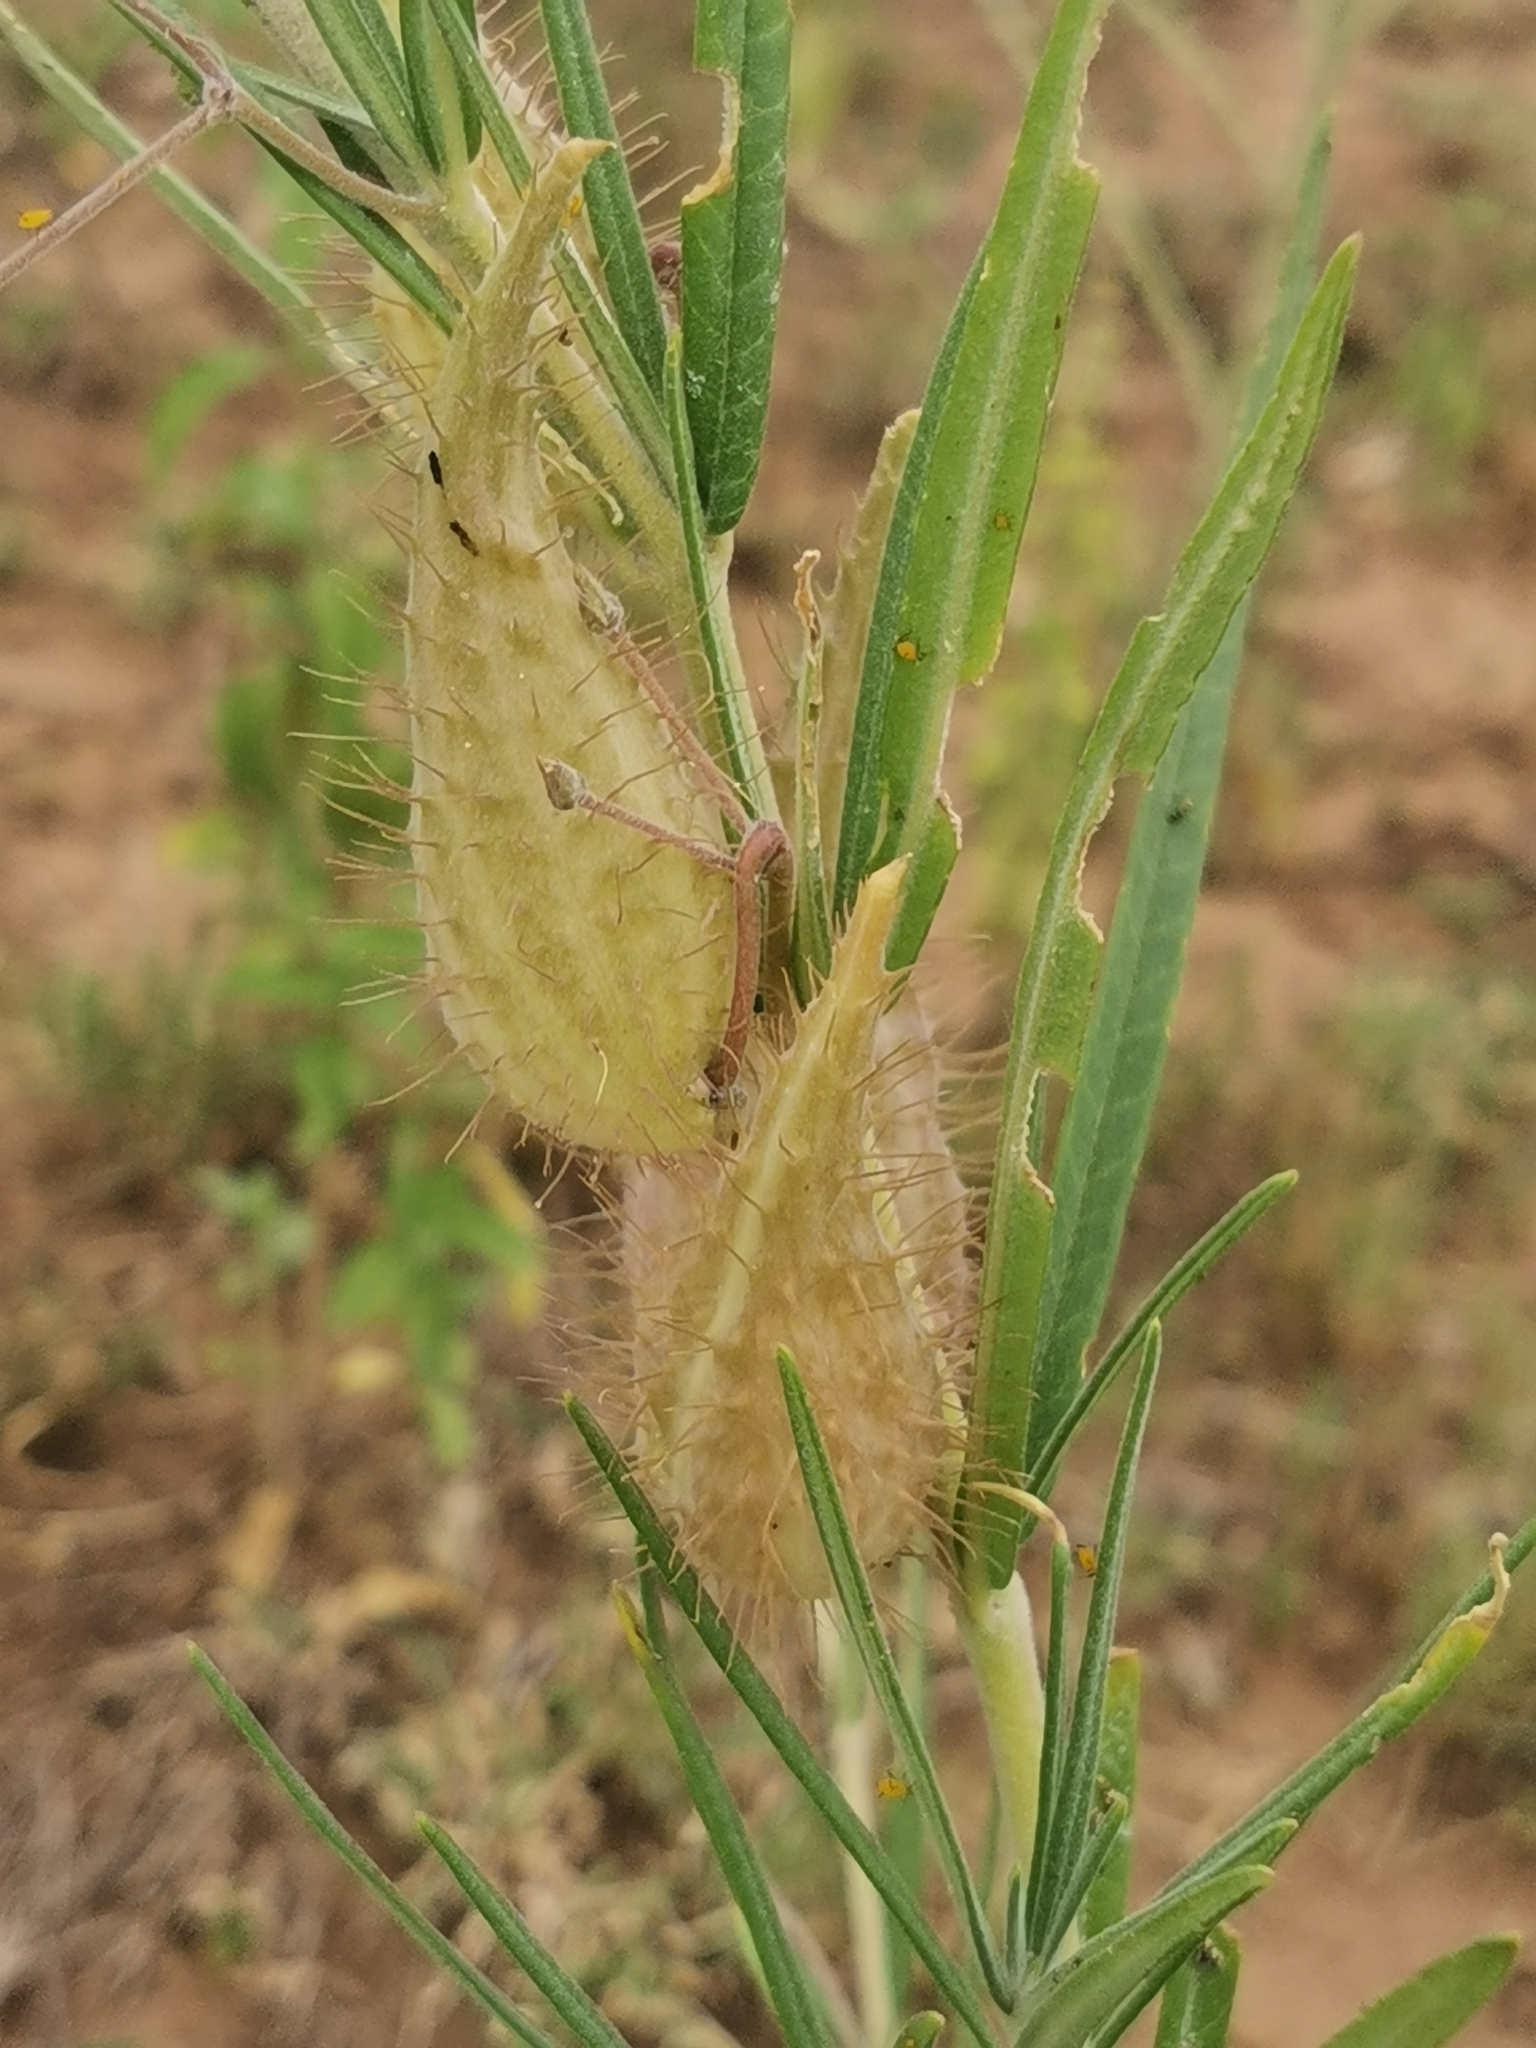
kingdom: Plantae
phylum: Tracheophyta
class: Magnoliopsida
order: Gentianales
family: Apocynaceae
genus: Gomphocarpus
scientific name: Gomphocarpus tomentosus
